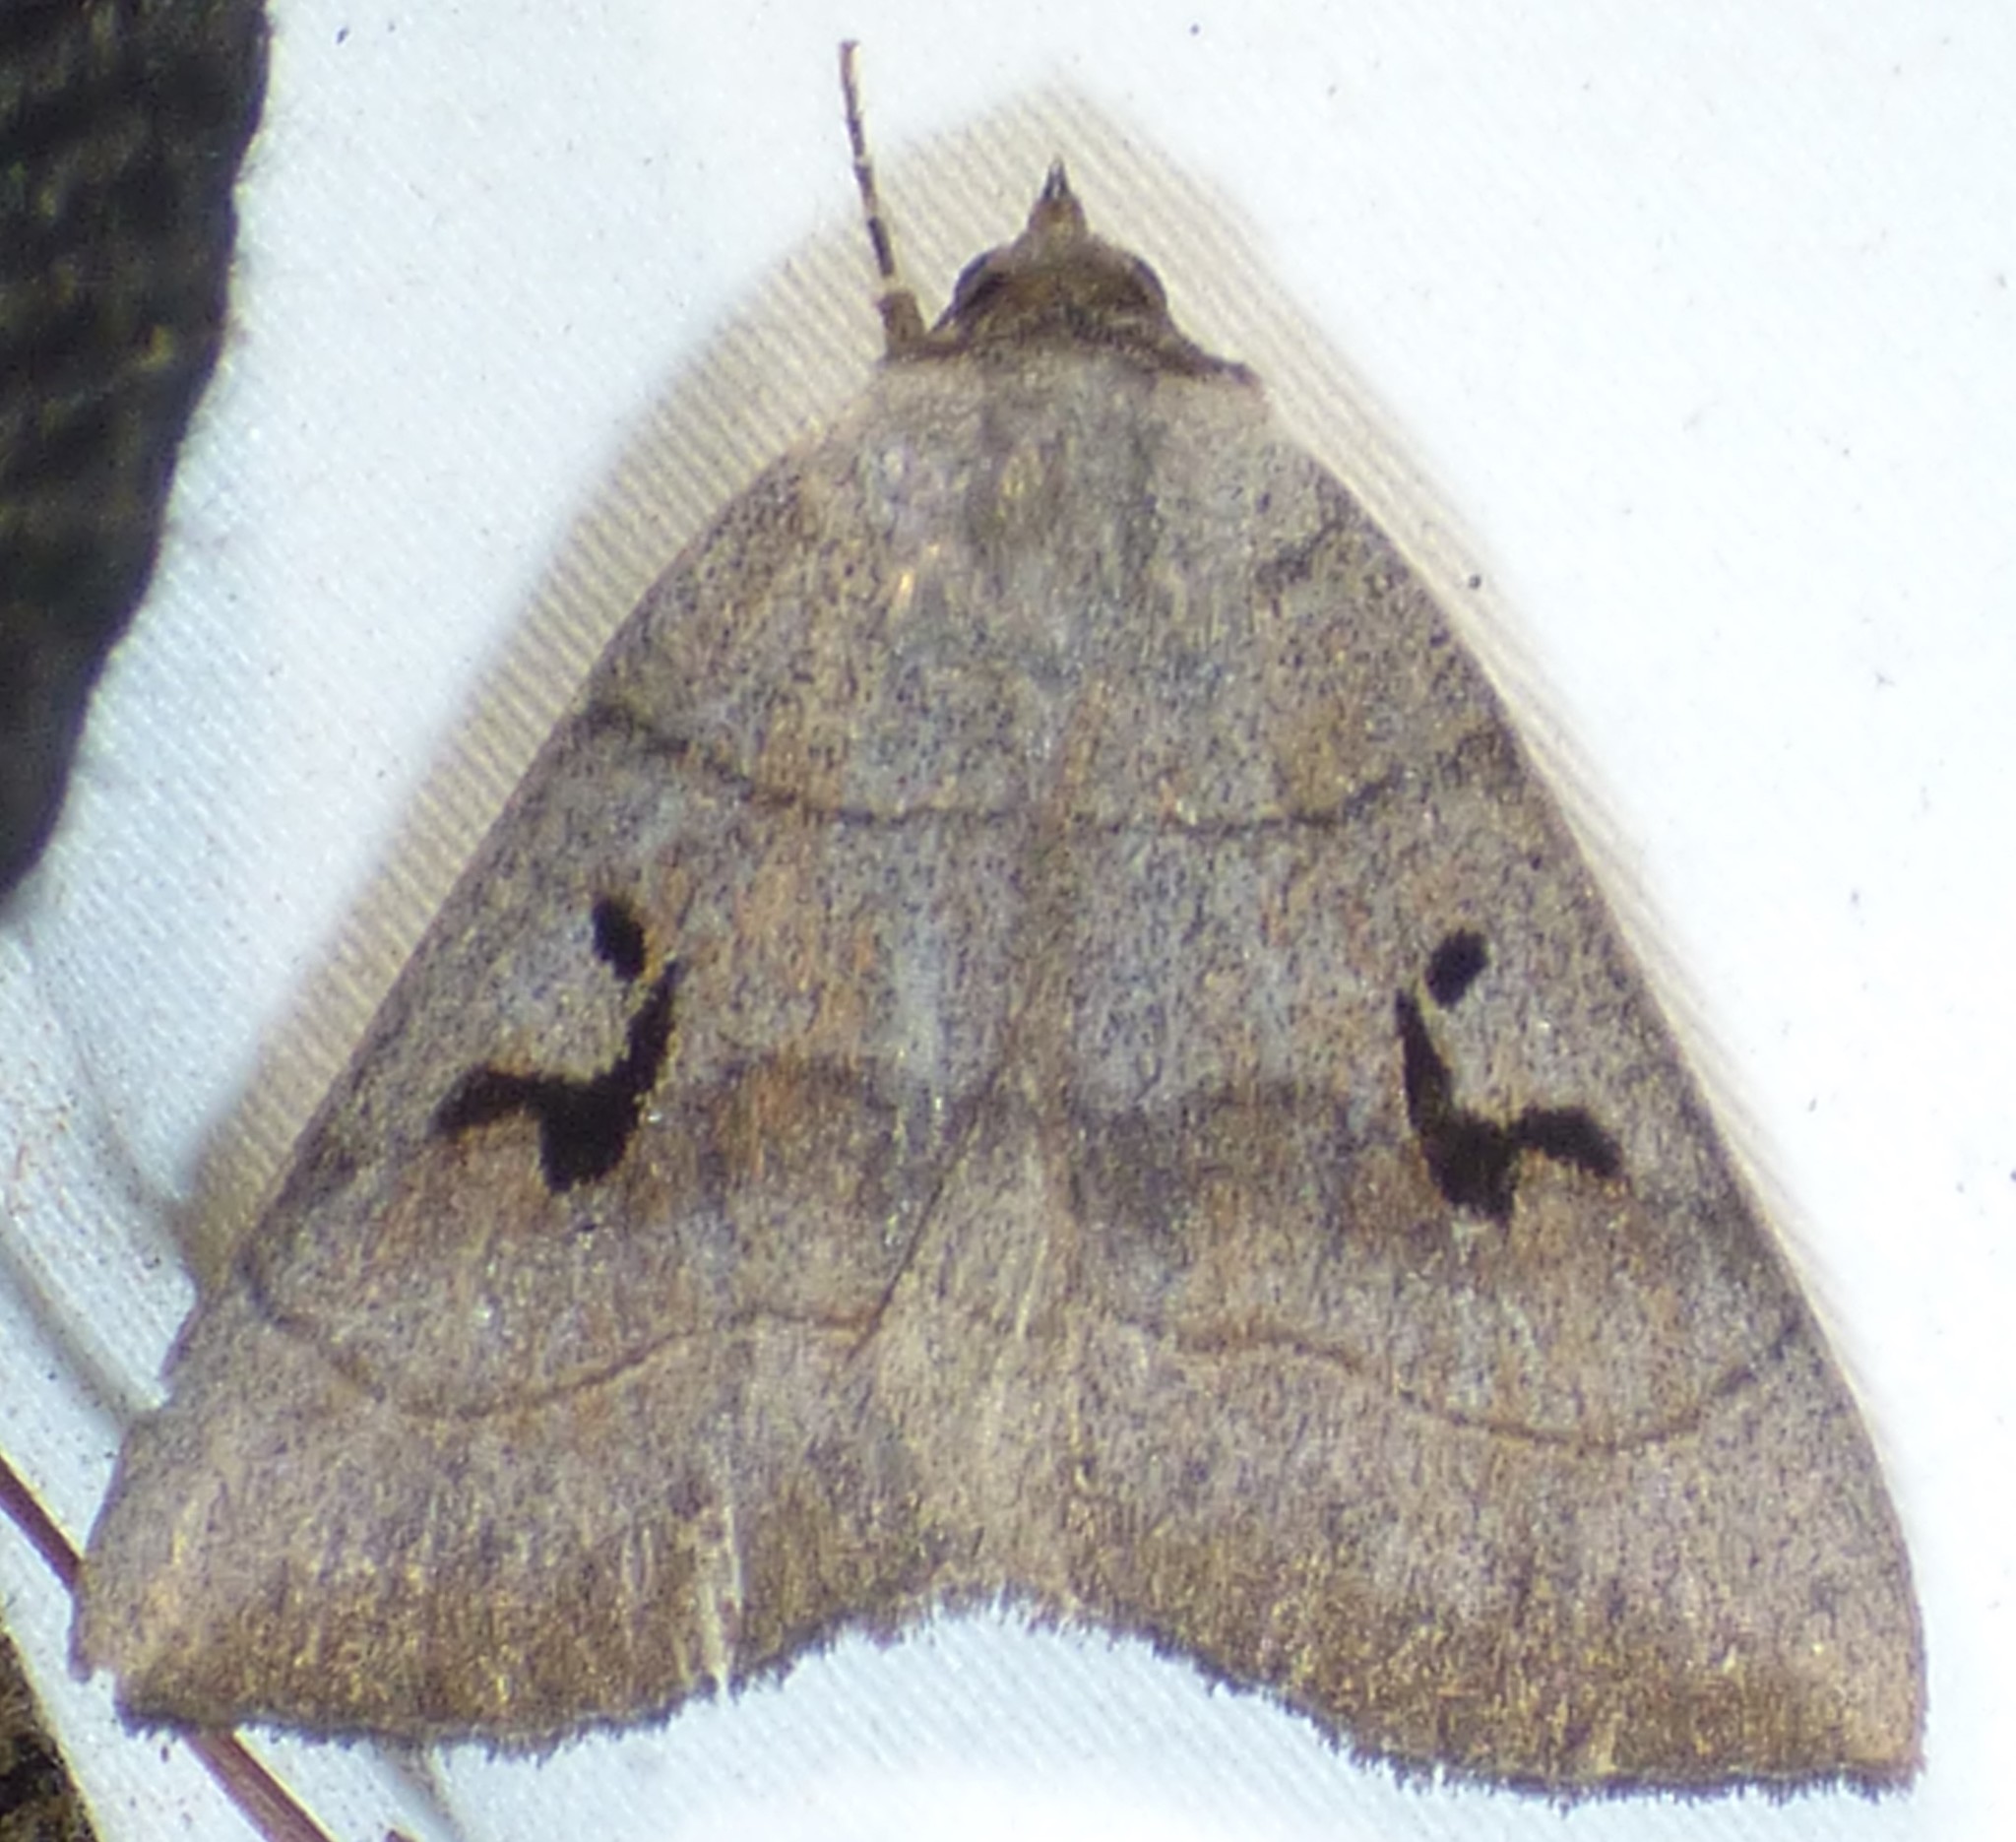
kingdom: Animalia
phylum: Arthropoda
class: Insecta
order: Lepidoptera
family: Erebidae
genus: Panopoda
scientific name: Panopoda carneicosta
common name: Brown panopoda moth
